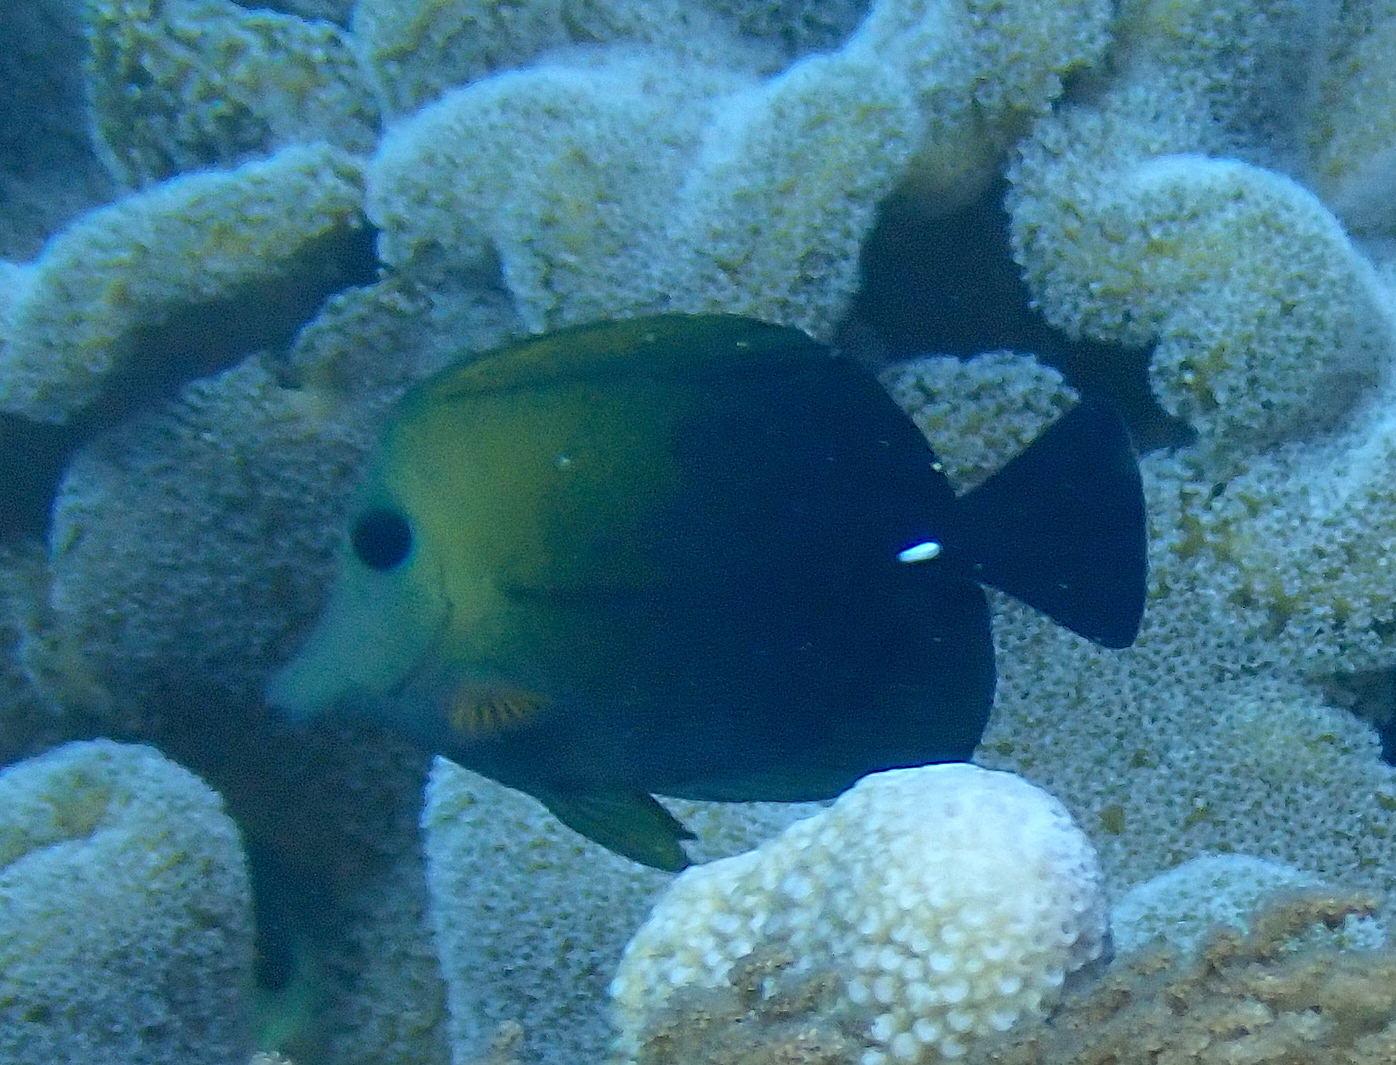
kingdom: Animalia
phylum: Chordata
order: Perciformes
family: Acanthuridae
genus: Zebrasoma
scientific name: Zebrasoma scopas
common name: Twotone tang
